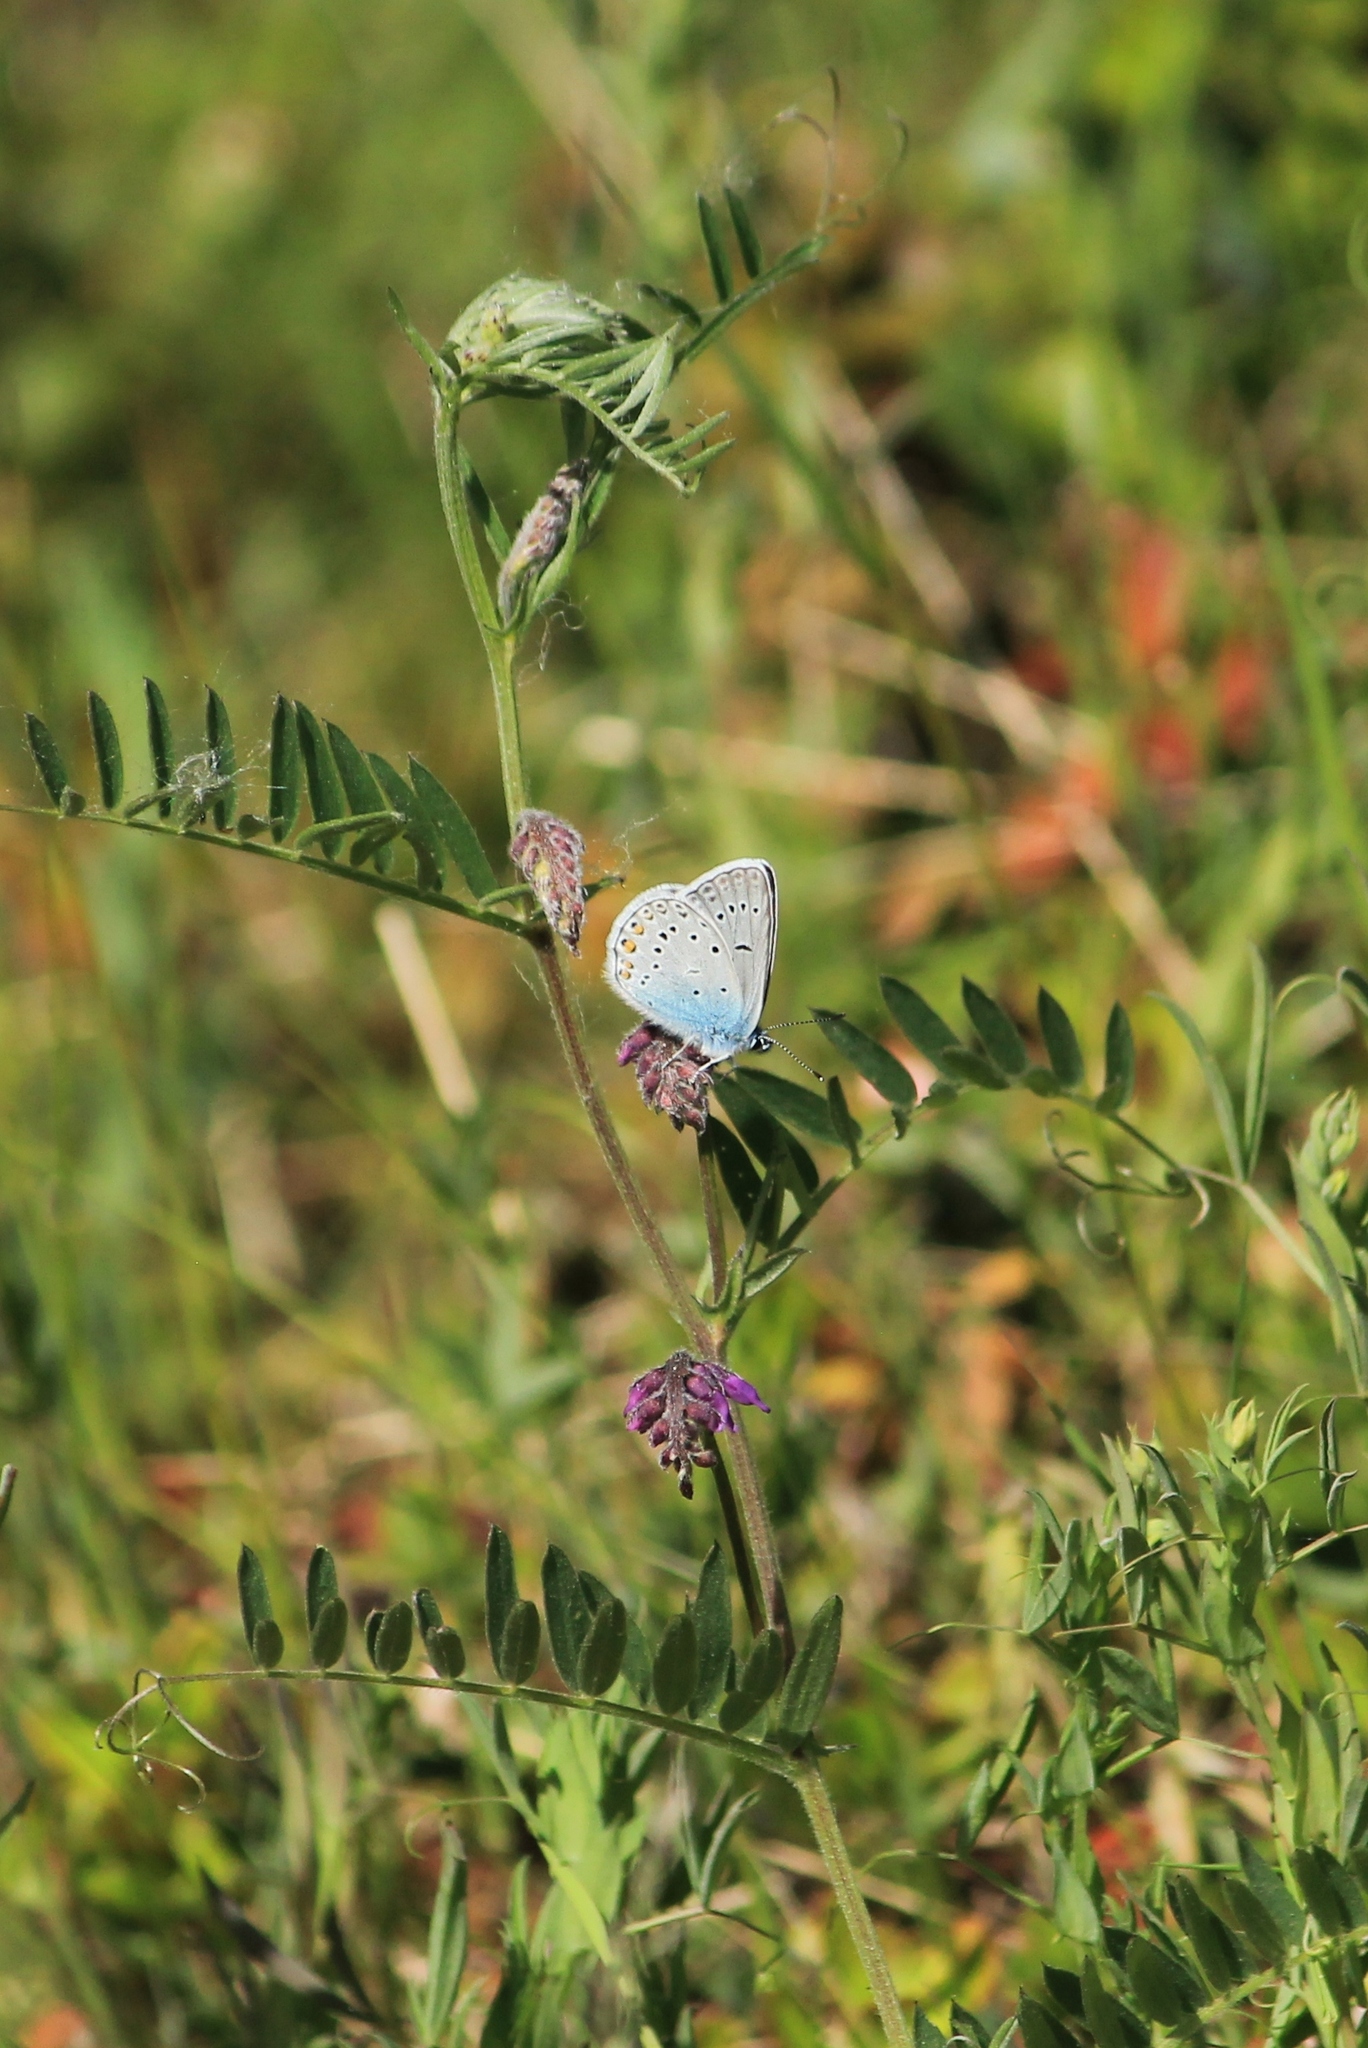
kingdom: Animalia
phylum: Arthropoda
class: Insecta
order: Lepidoptera
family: Lycaenidae
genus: Plebejus
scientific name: Plebejus amanda
